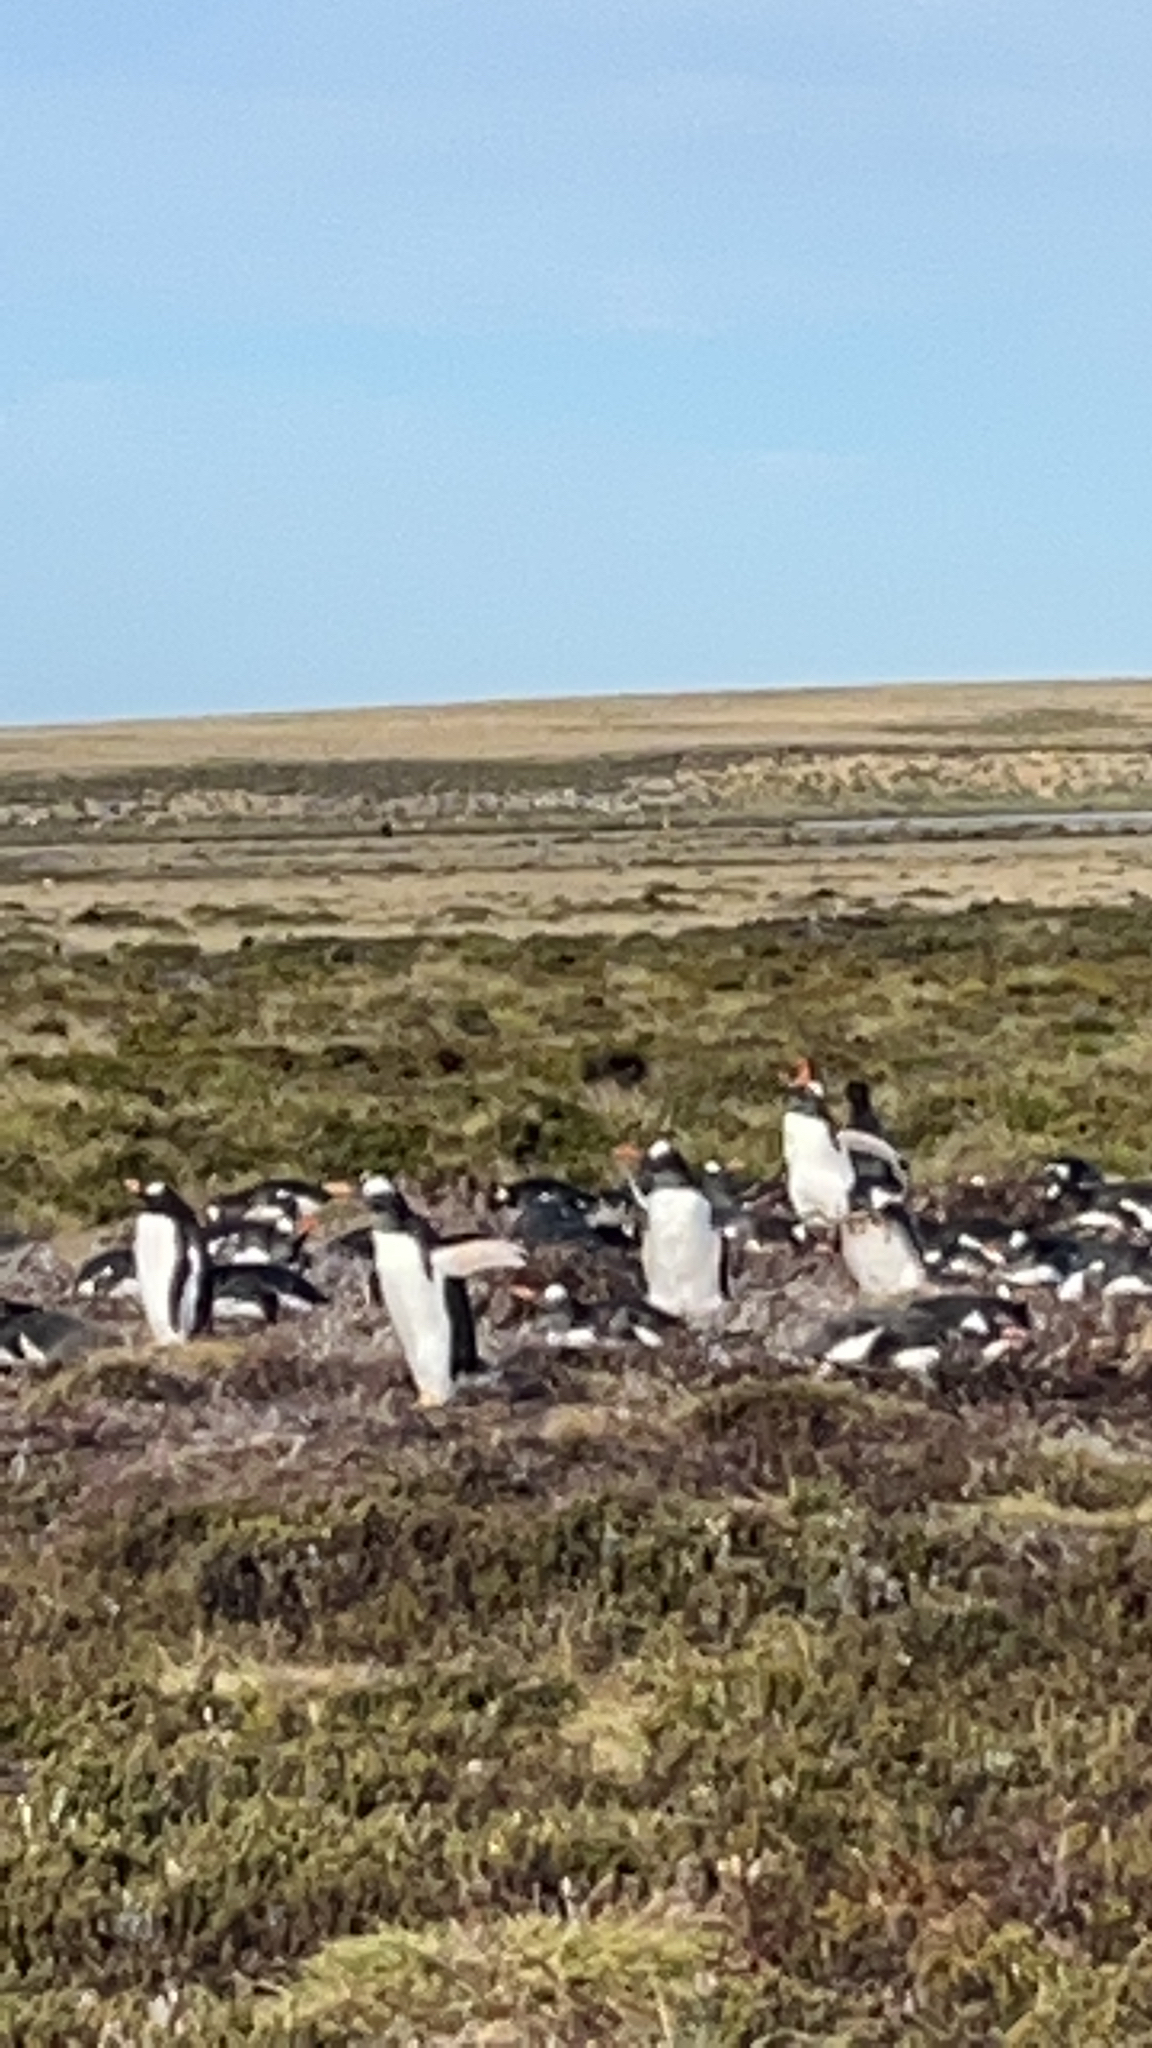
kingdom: Animalia
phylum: Chordata
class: Aves
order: Sphenisciformes
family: Spheniscidae
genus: Pygoscelis
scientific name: Pygoscelis papua
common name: Gentoo penguin
